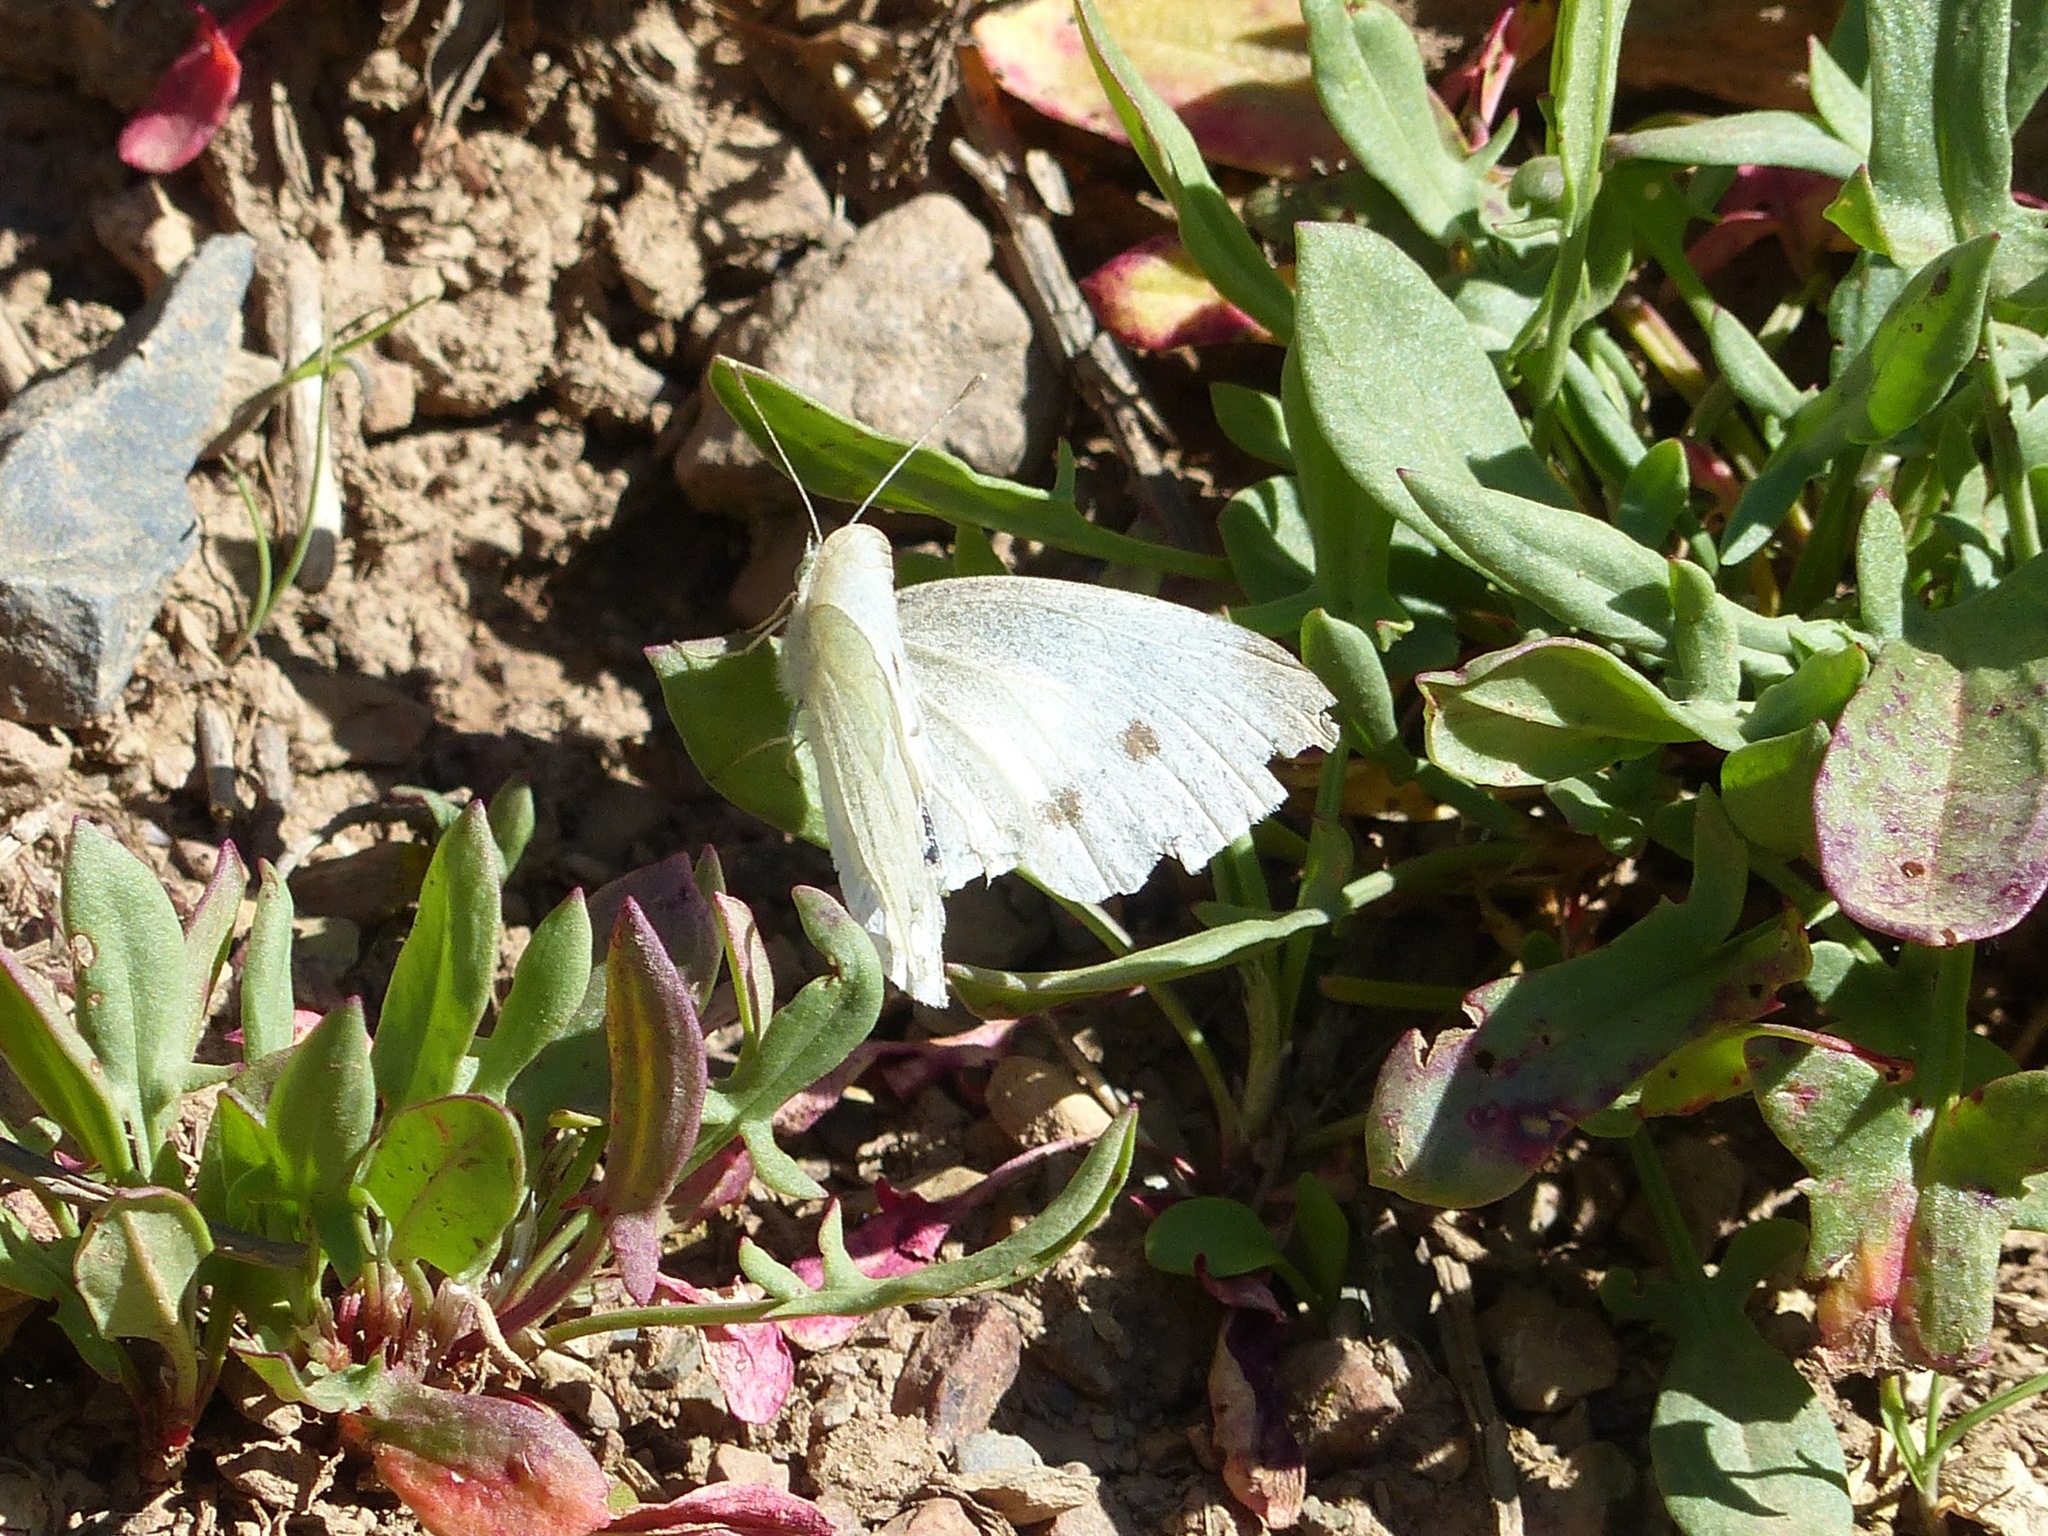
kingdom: Animalia
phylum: Arthropoda
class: Insecta
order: Lepidoptera
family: Pieridae
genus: Pieris
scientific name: Pieris rapae
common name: Small white
